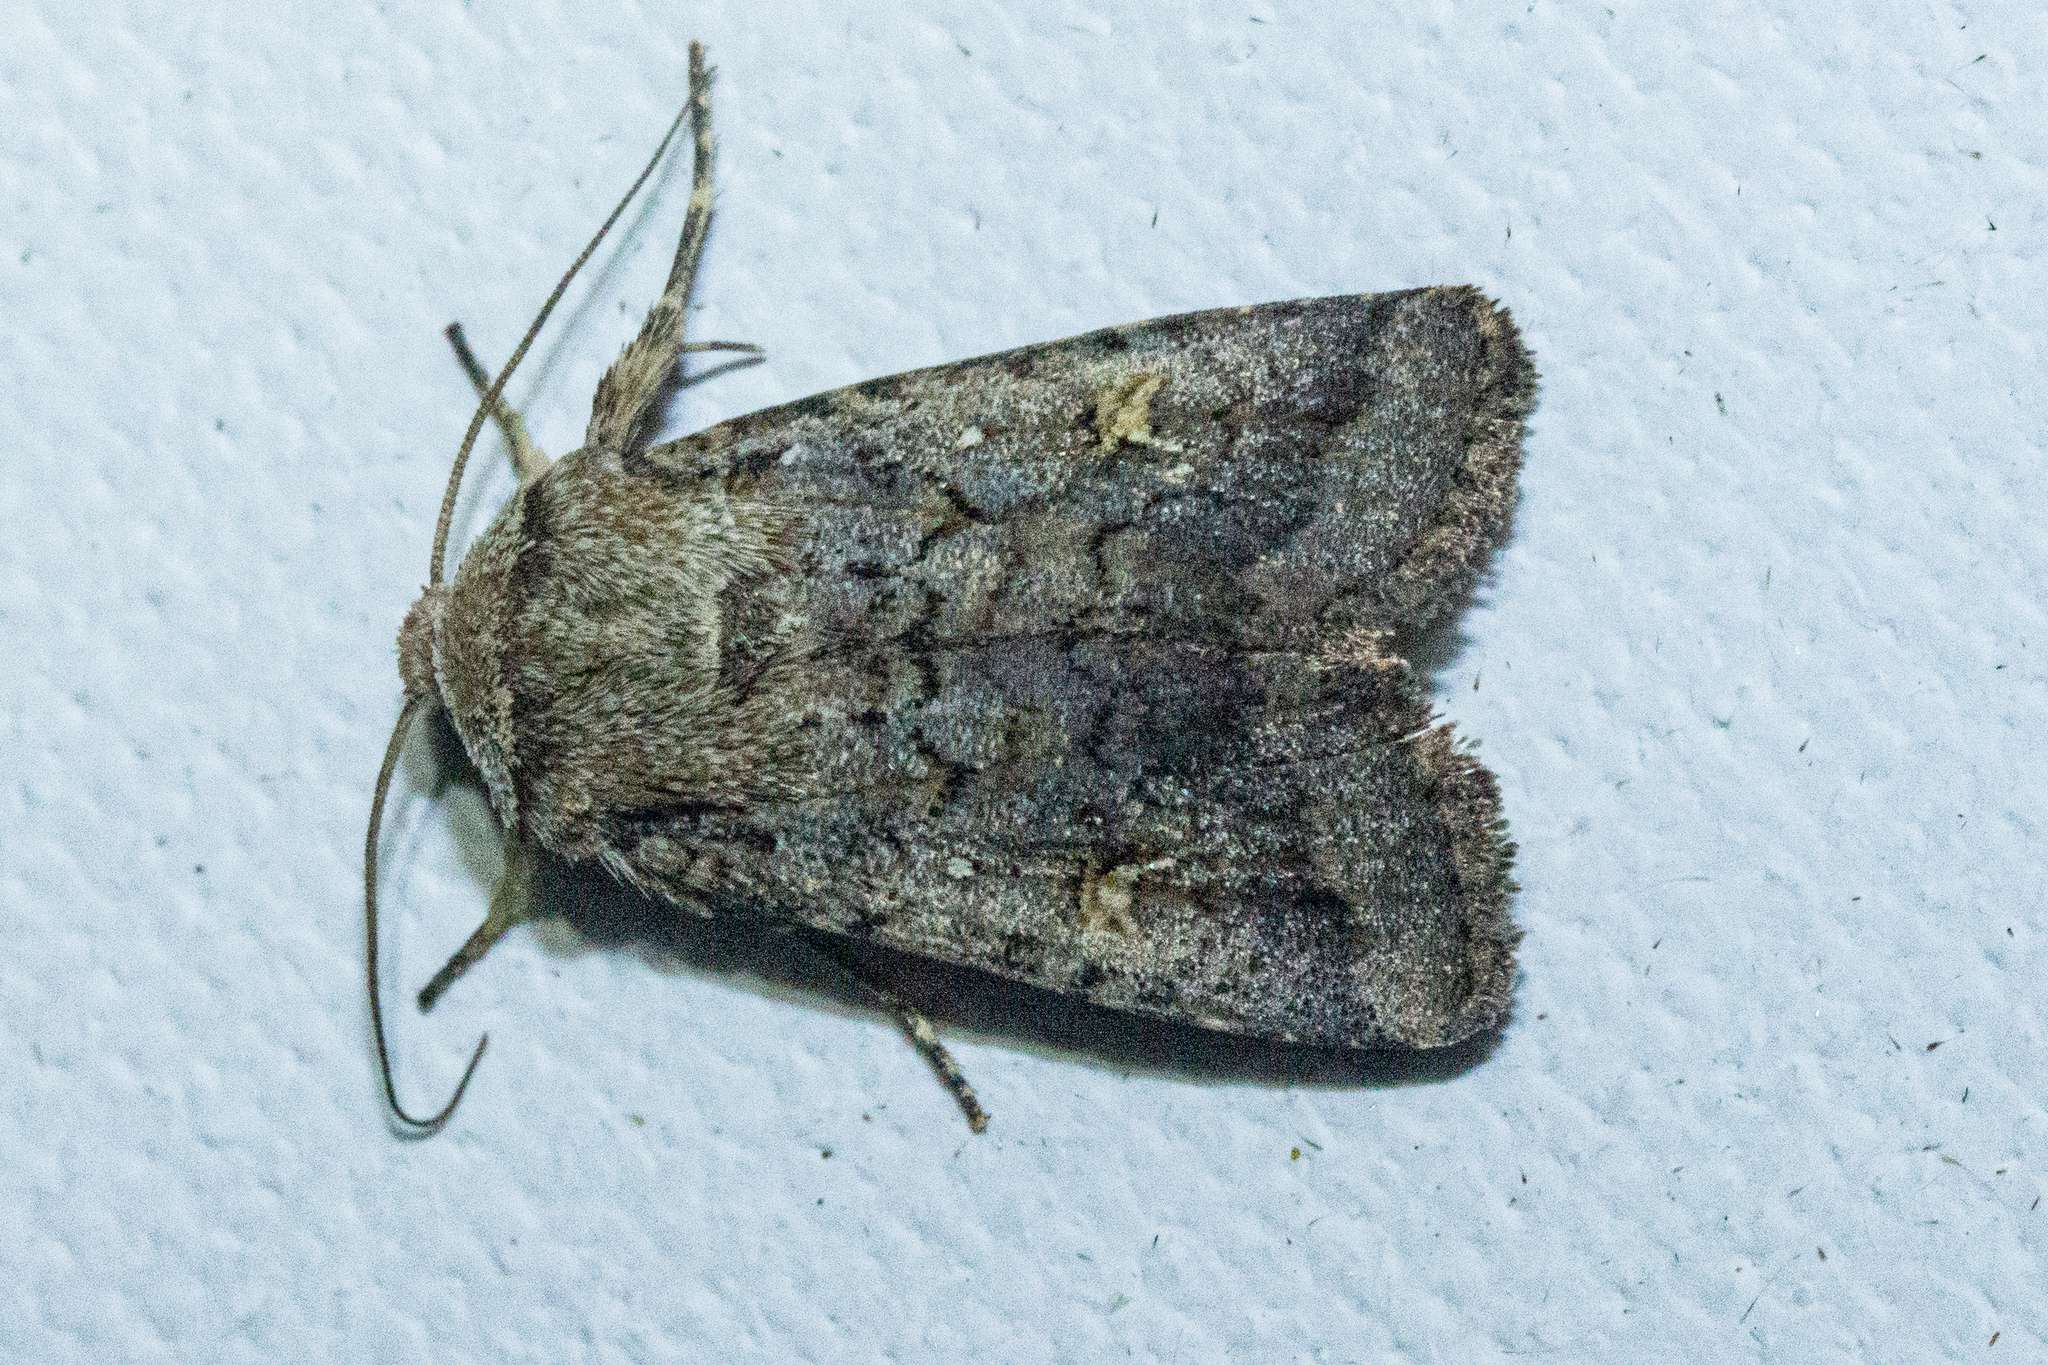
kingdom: Animalia
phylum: Arthropoda
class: Insecta
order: Lepidoptera
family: Noctuidae
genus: Proteuxoa
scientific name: Proteuxoa tetronycha
